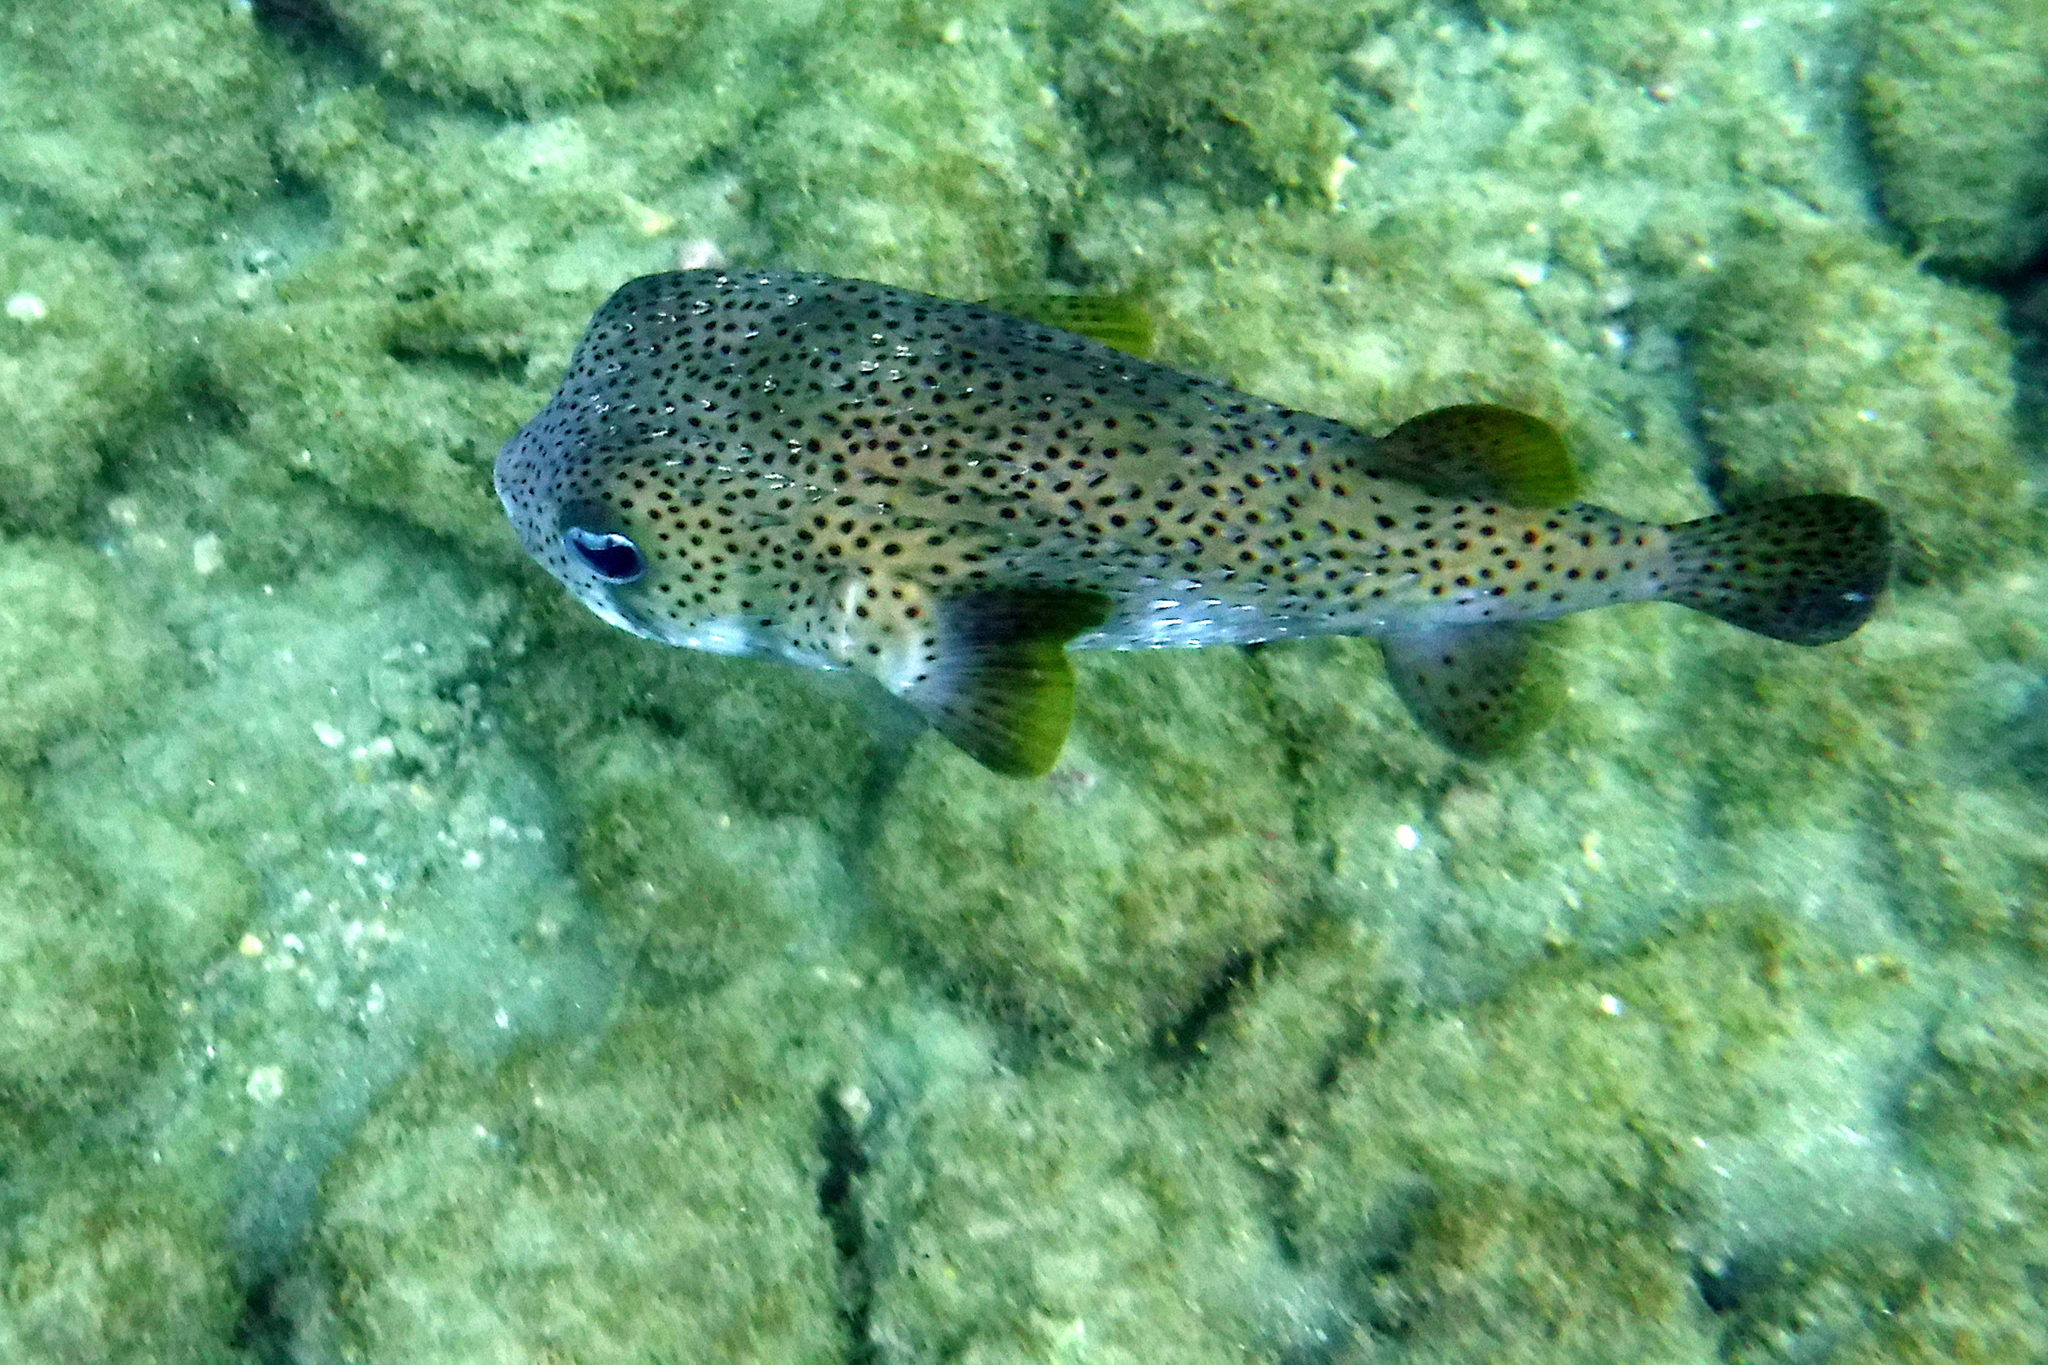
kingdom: Animalia
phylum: Chordata
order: Tetraodontiformes
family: Diodontidae
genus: Diodon
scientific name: Diodon hystrix
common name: Giant porcupinefish
